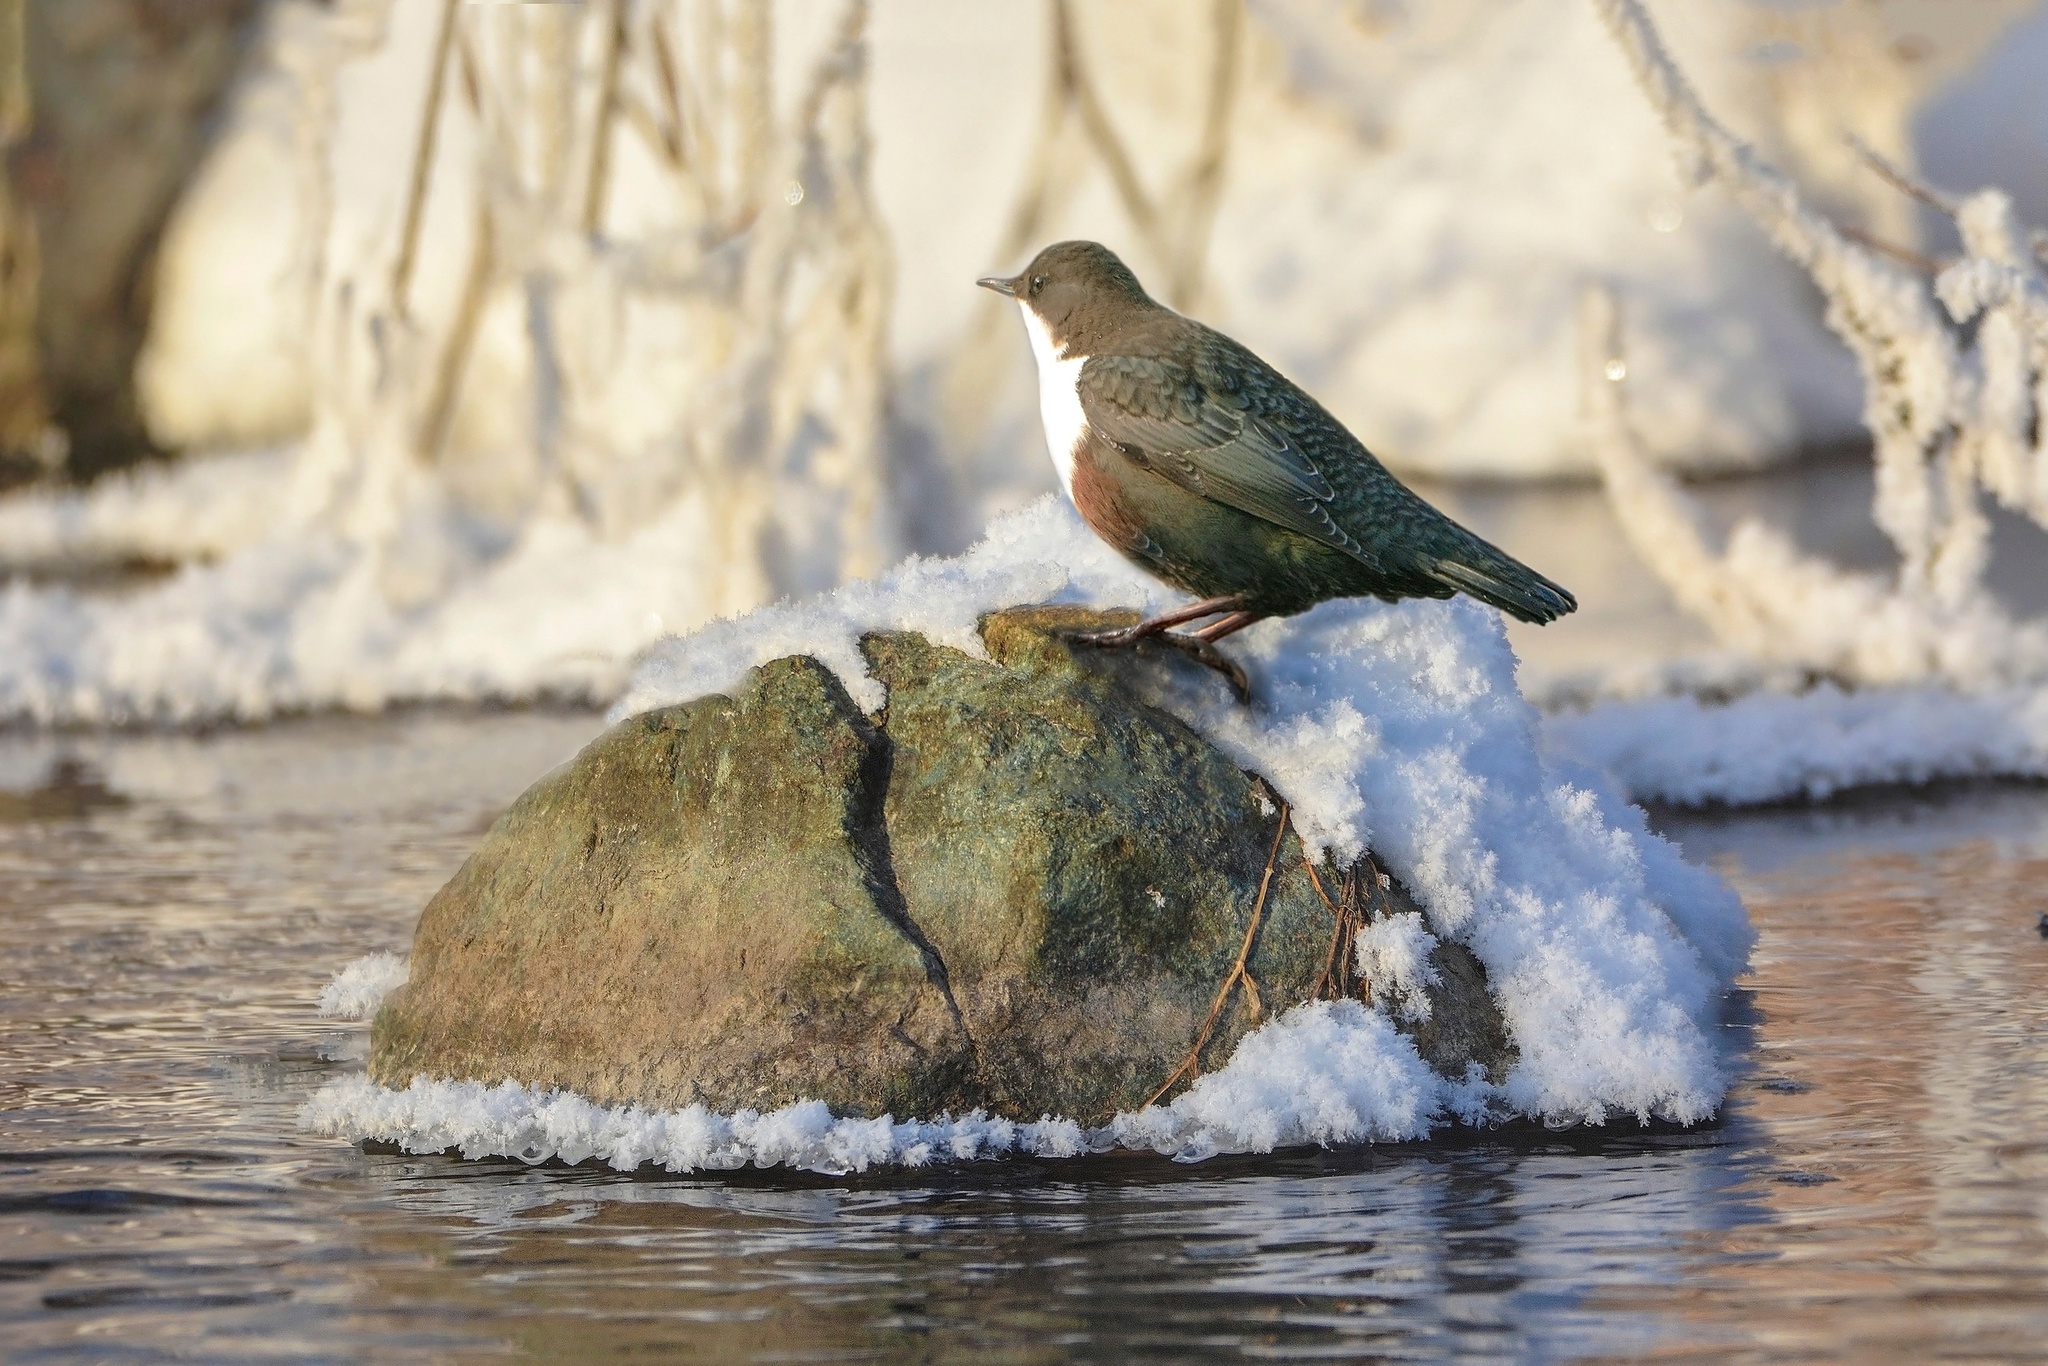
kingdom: Animalia
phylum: Chordata
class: Aves
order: Passeriformes
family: Cinclidae
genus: Cinclus
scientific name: Cinclus cinclus
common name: White-throated dipper
